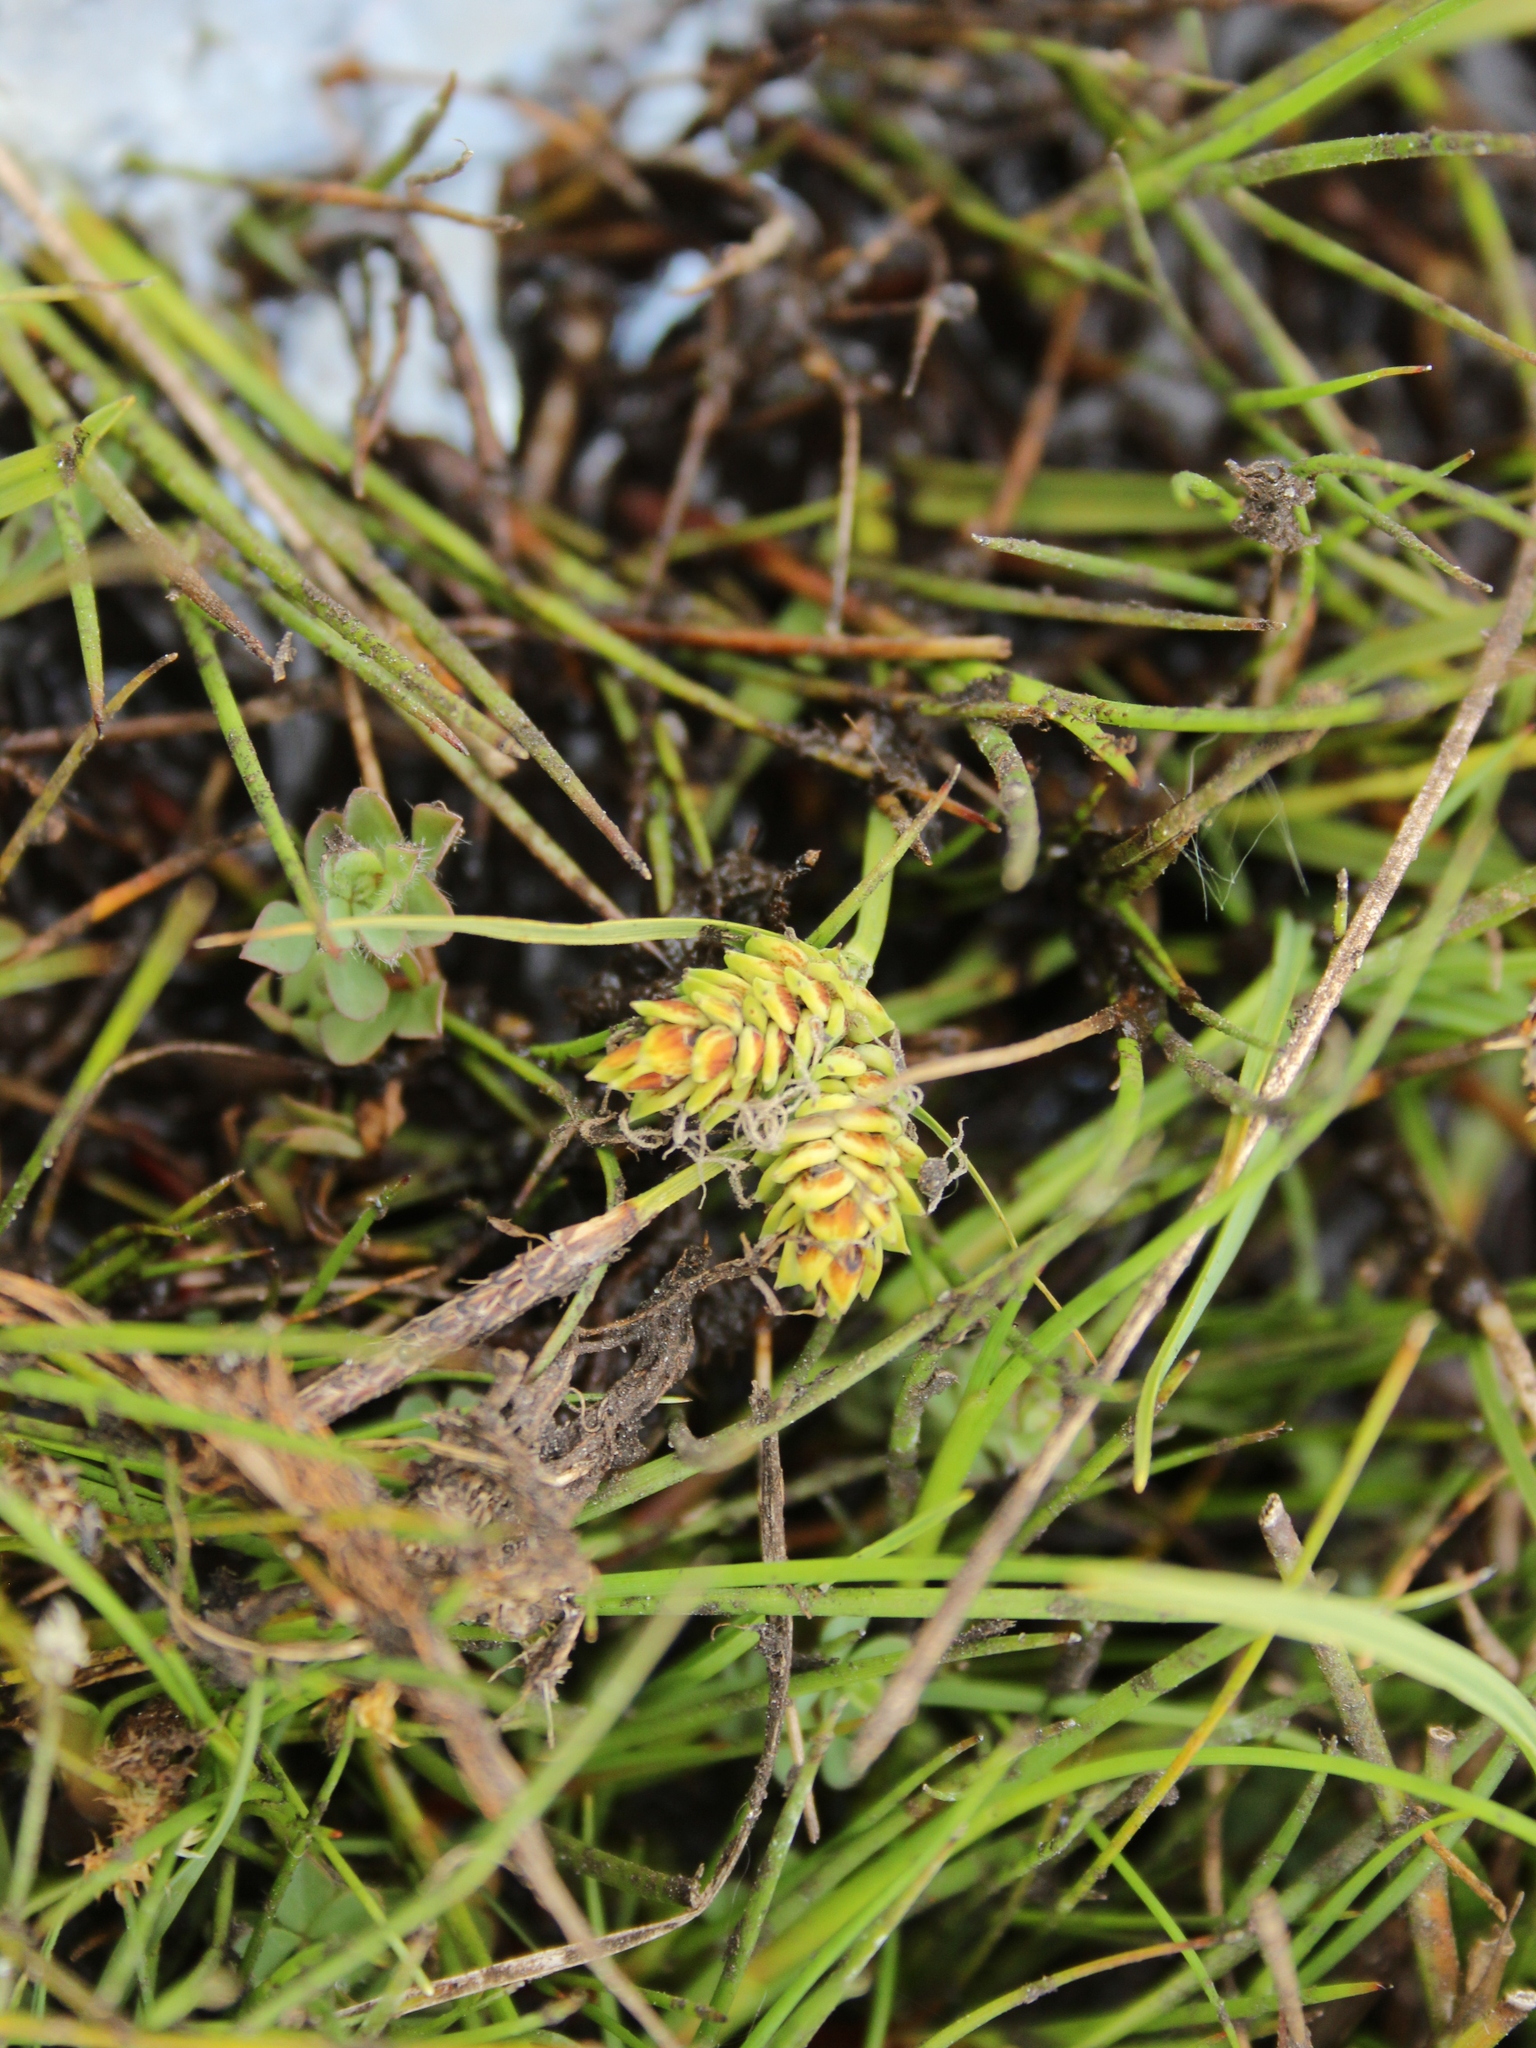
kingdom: Plantae
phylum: Tracheophyta
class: Liliopsida
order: Poales
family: Cyperaceae
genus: Carex
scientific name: Carex gaudichaudiana
